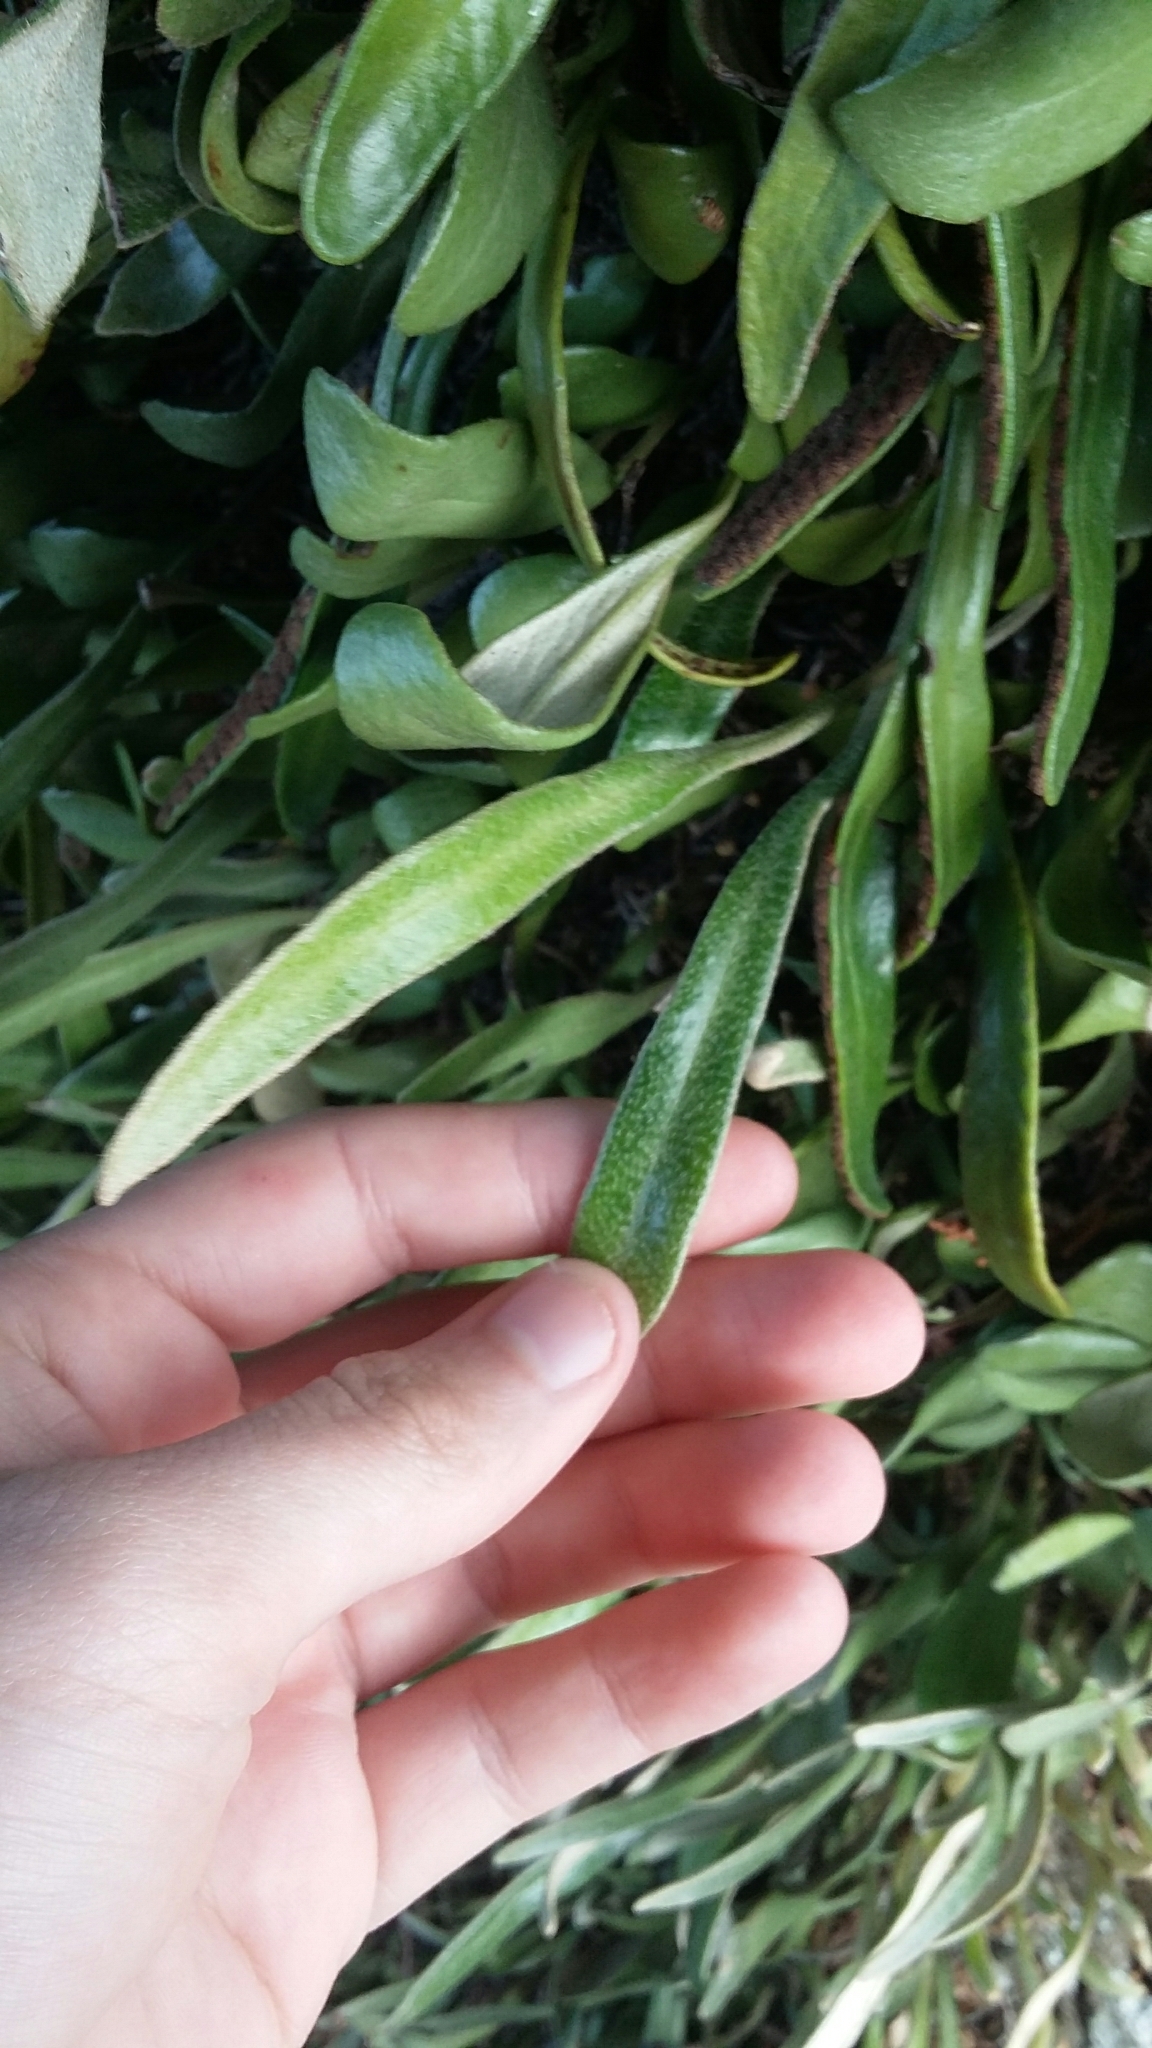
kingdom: Plantae
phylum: Tracheophyta
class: Polypodiopsida
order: Polypodiales
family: Polypodiaceae
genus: Pyrrosia
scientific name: Pyrrosia eleagnifolia
